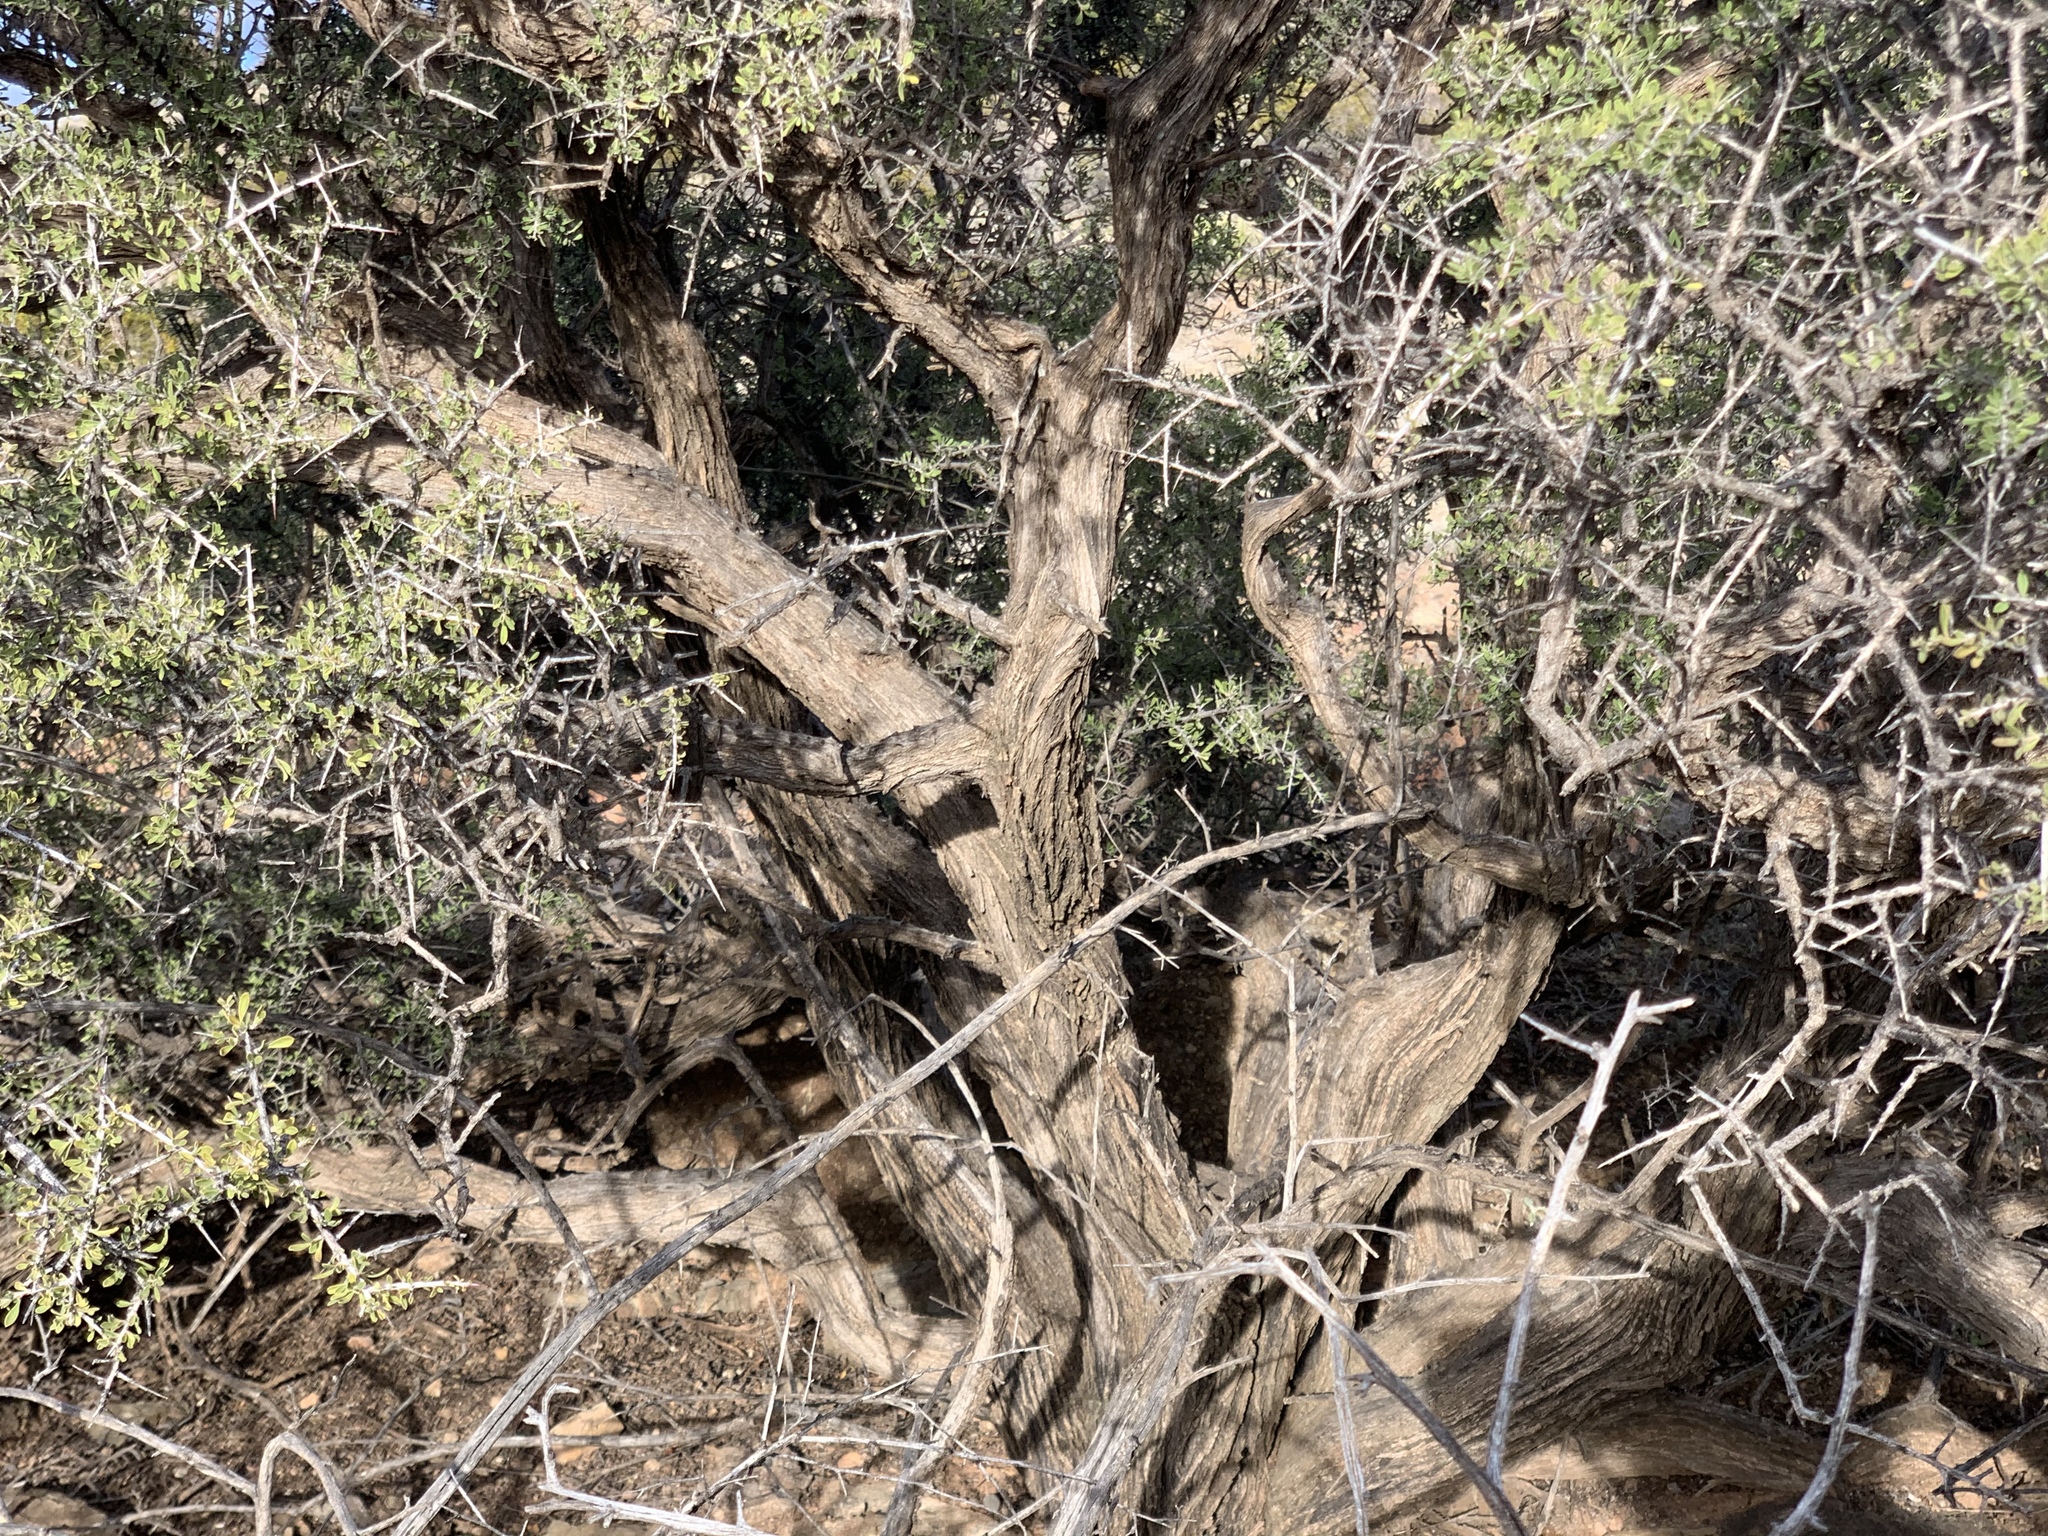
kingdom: Plantae
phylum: Tracheophyta
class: Magnoliopsida
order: Rosales
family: Rhamnaceae
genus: Condalia
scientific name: Condalia warnockii
